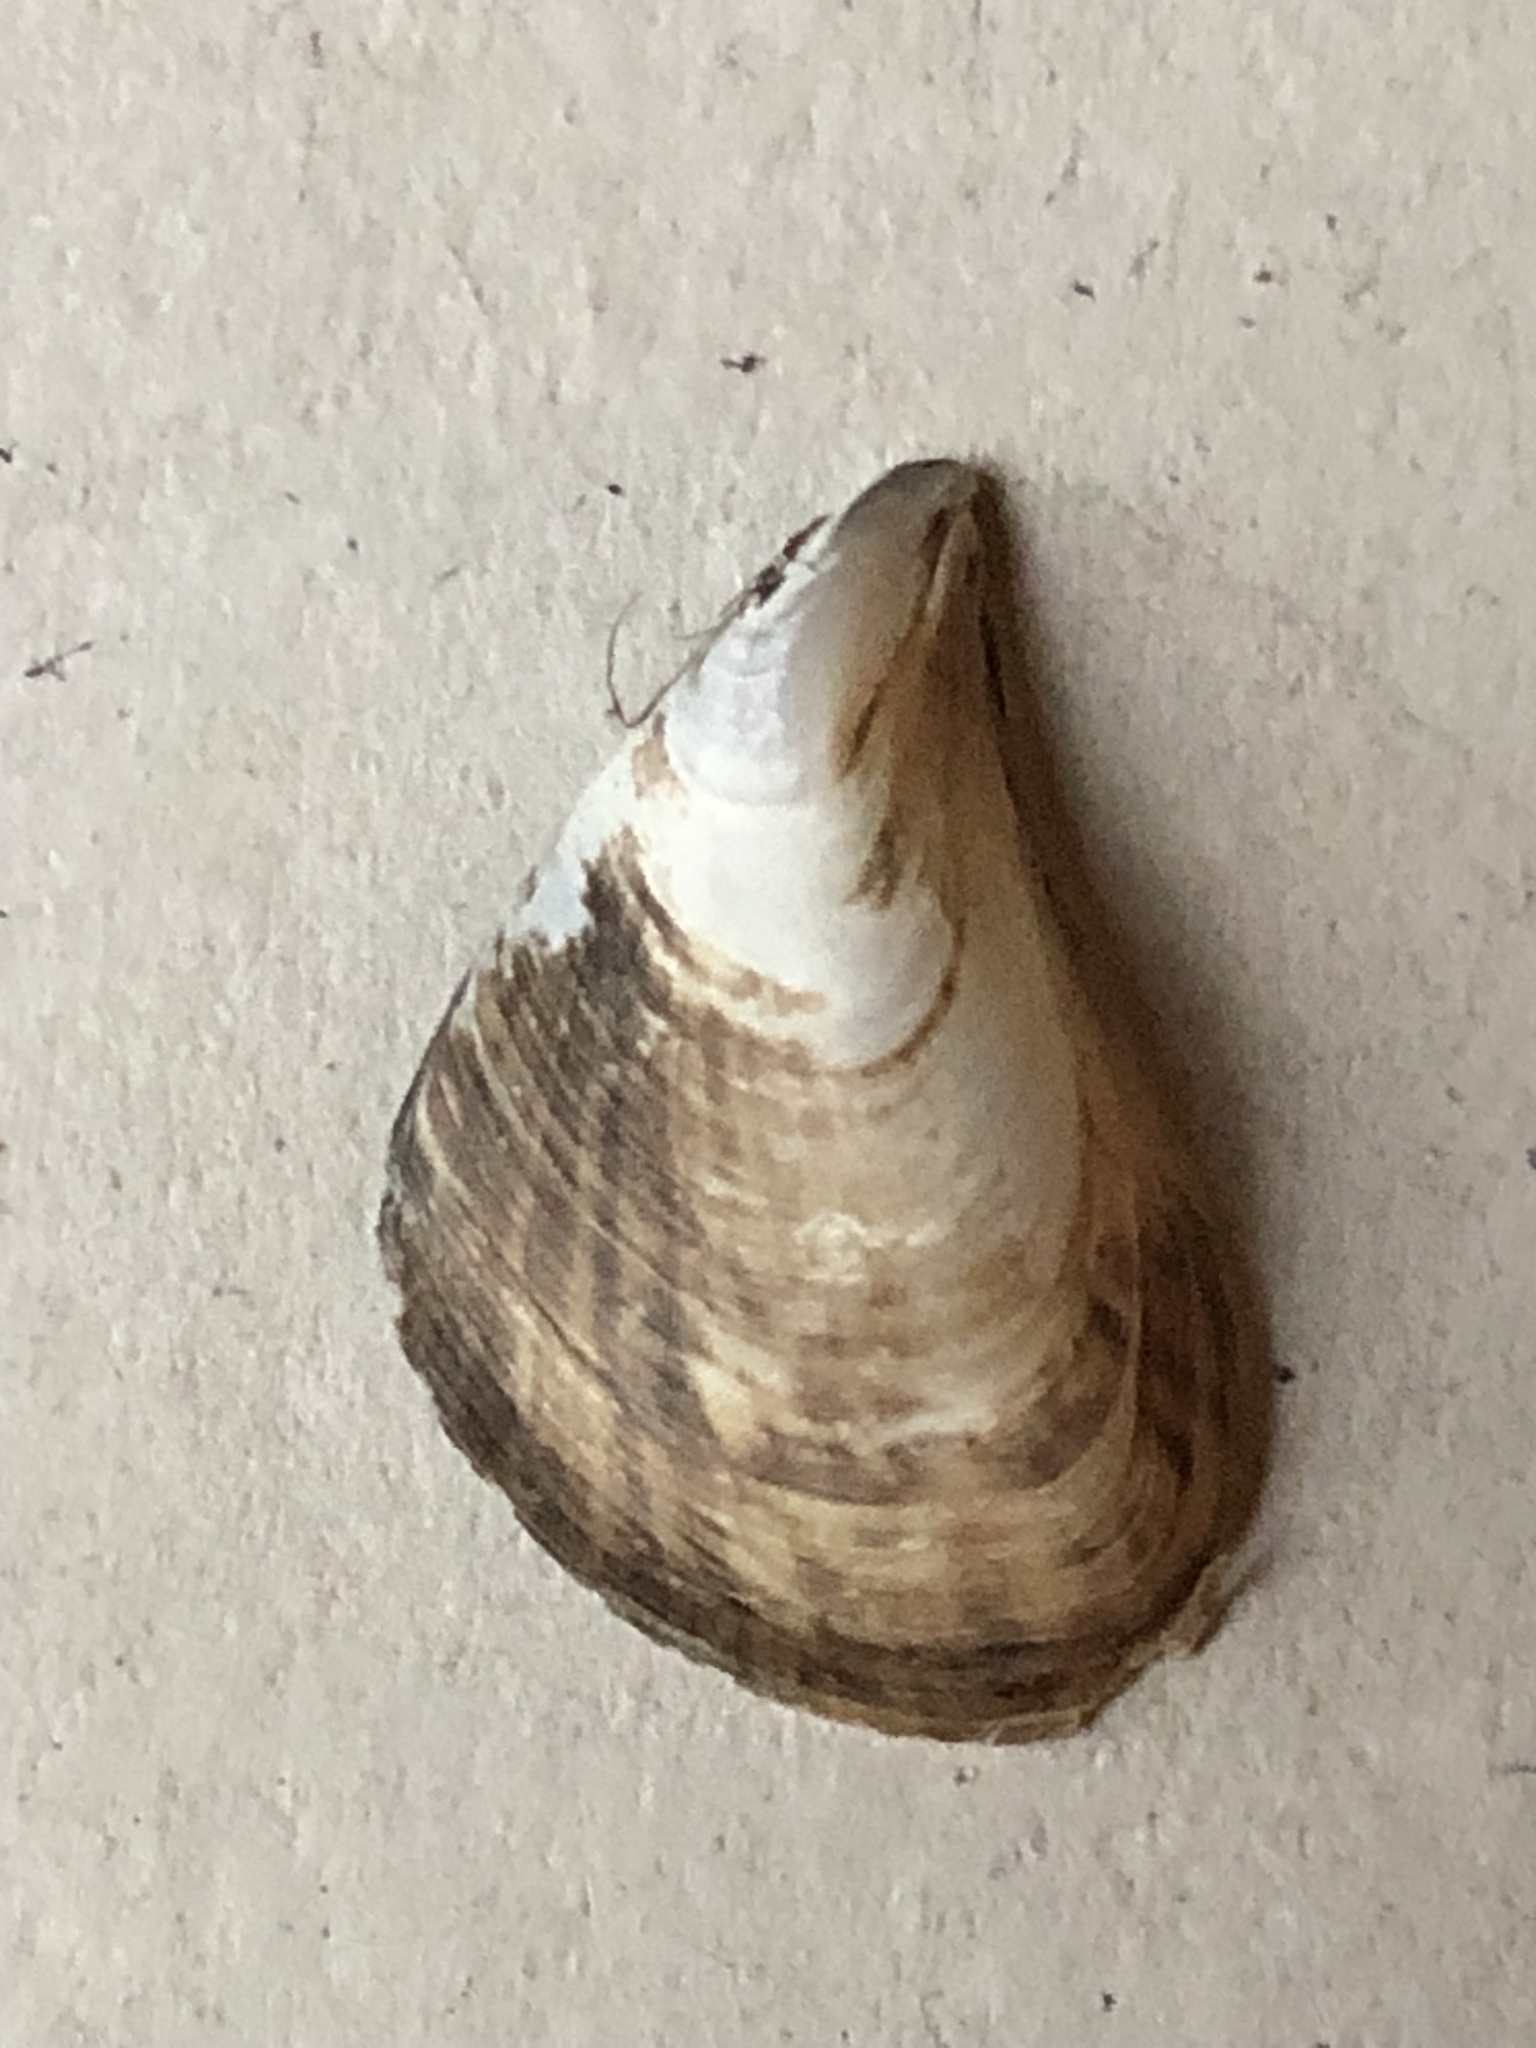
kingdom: Animalia
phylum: Mollusca
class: Bivalvia
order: Myida
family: Dreissenidae
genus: Dreissena
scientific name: Dreissena bugensis
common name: Quagga mussel
